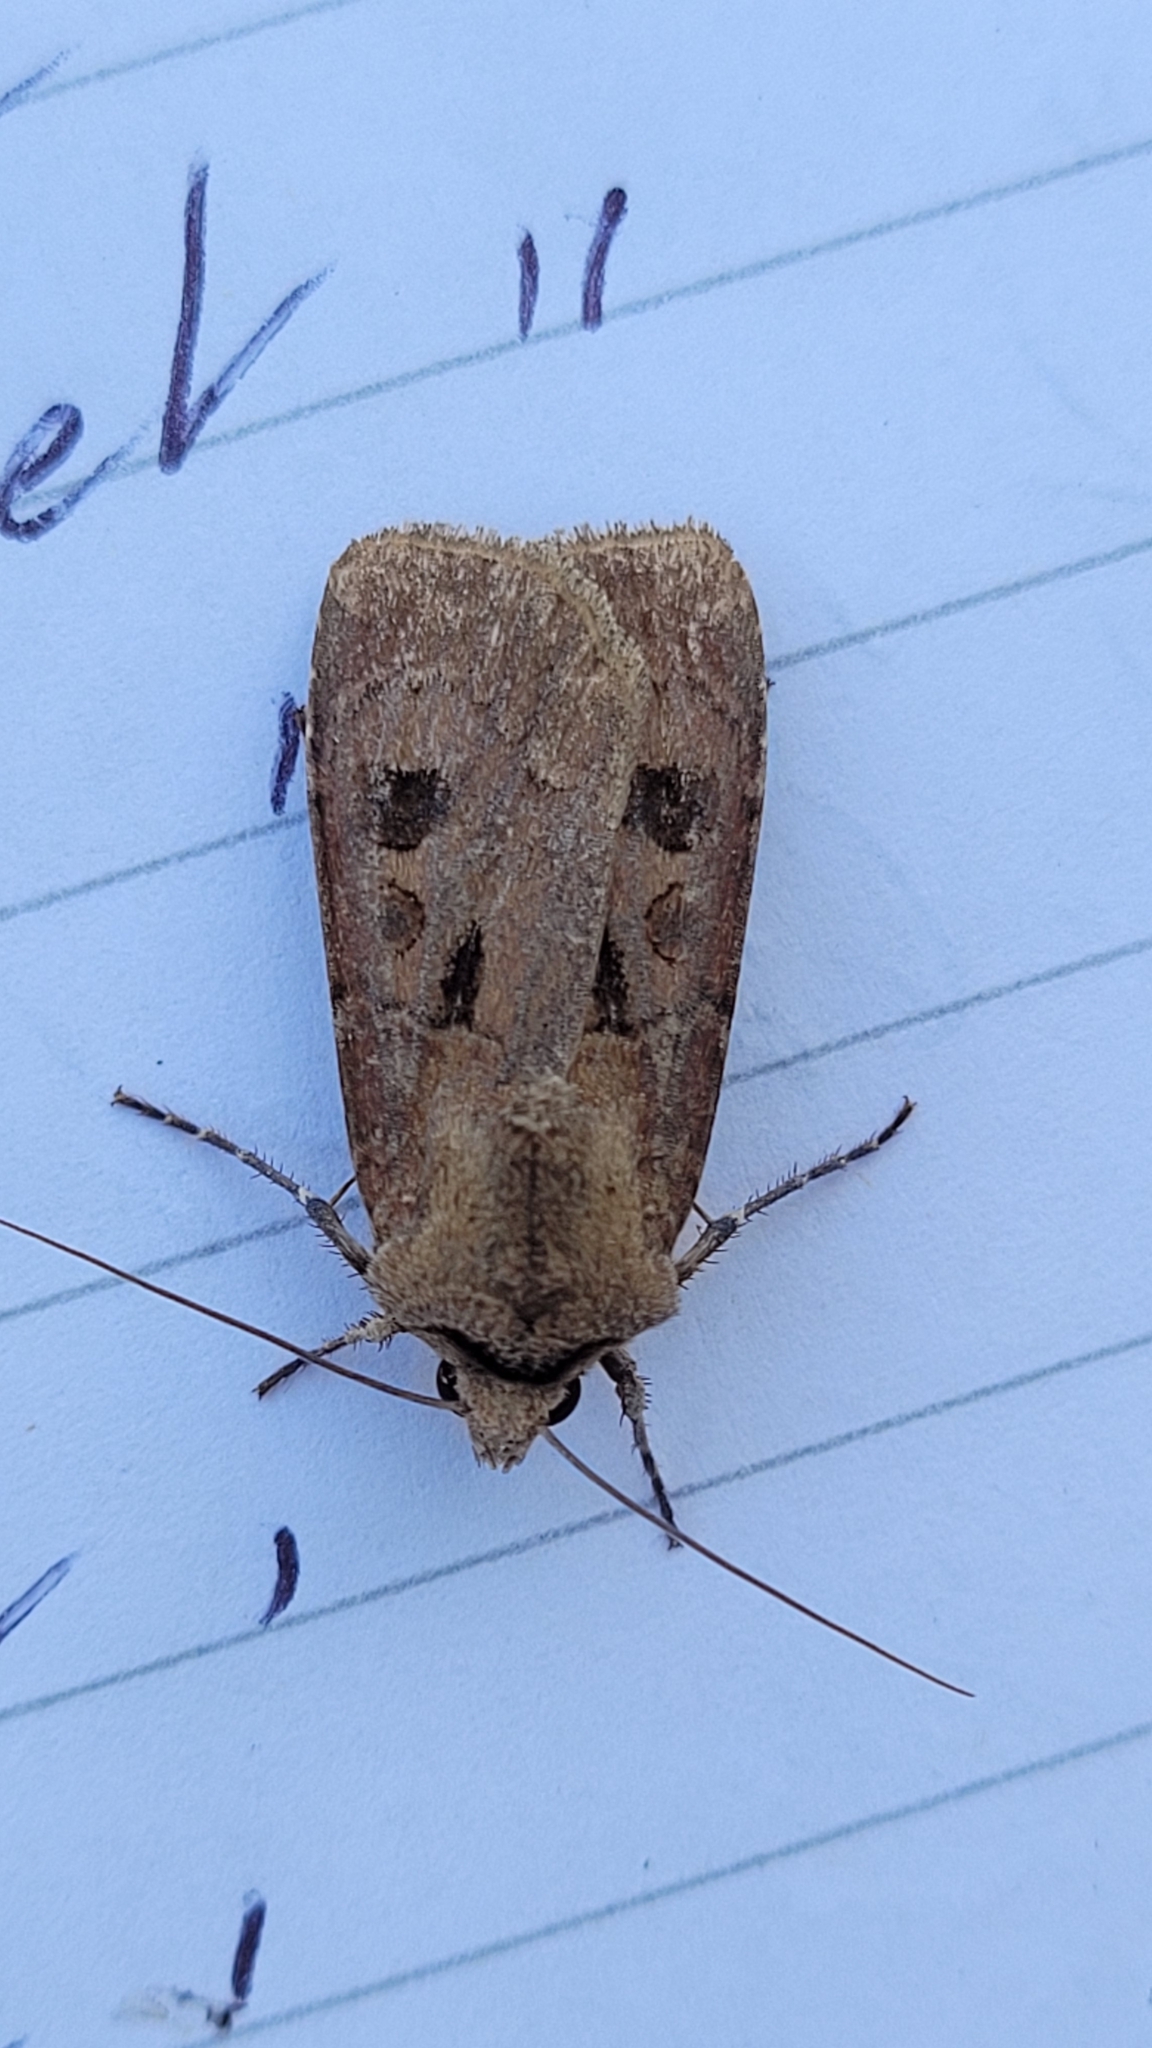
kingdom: Animalia
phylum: Arthropoda
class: Insecta
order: Lepidoptera
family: Noctuidae
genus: Agrotis
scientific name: Agrotis exclamationis
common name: Heart and dart
